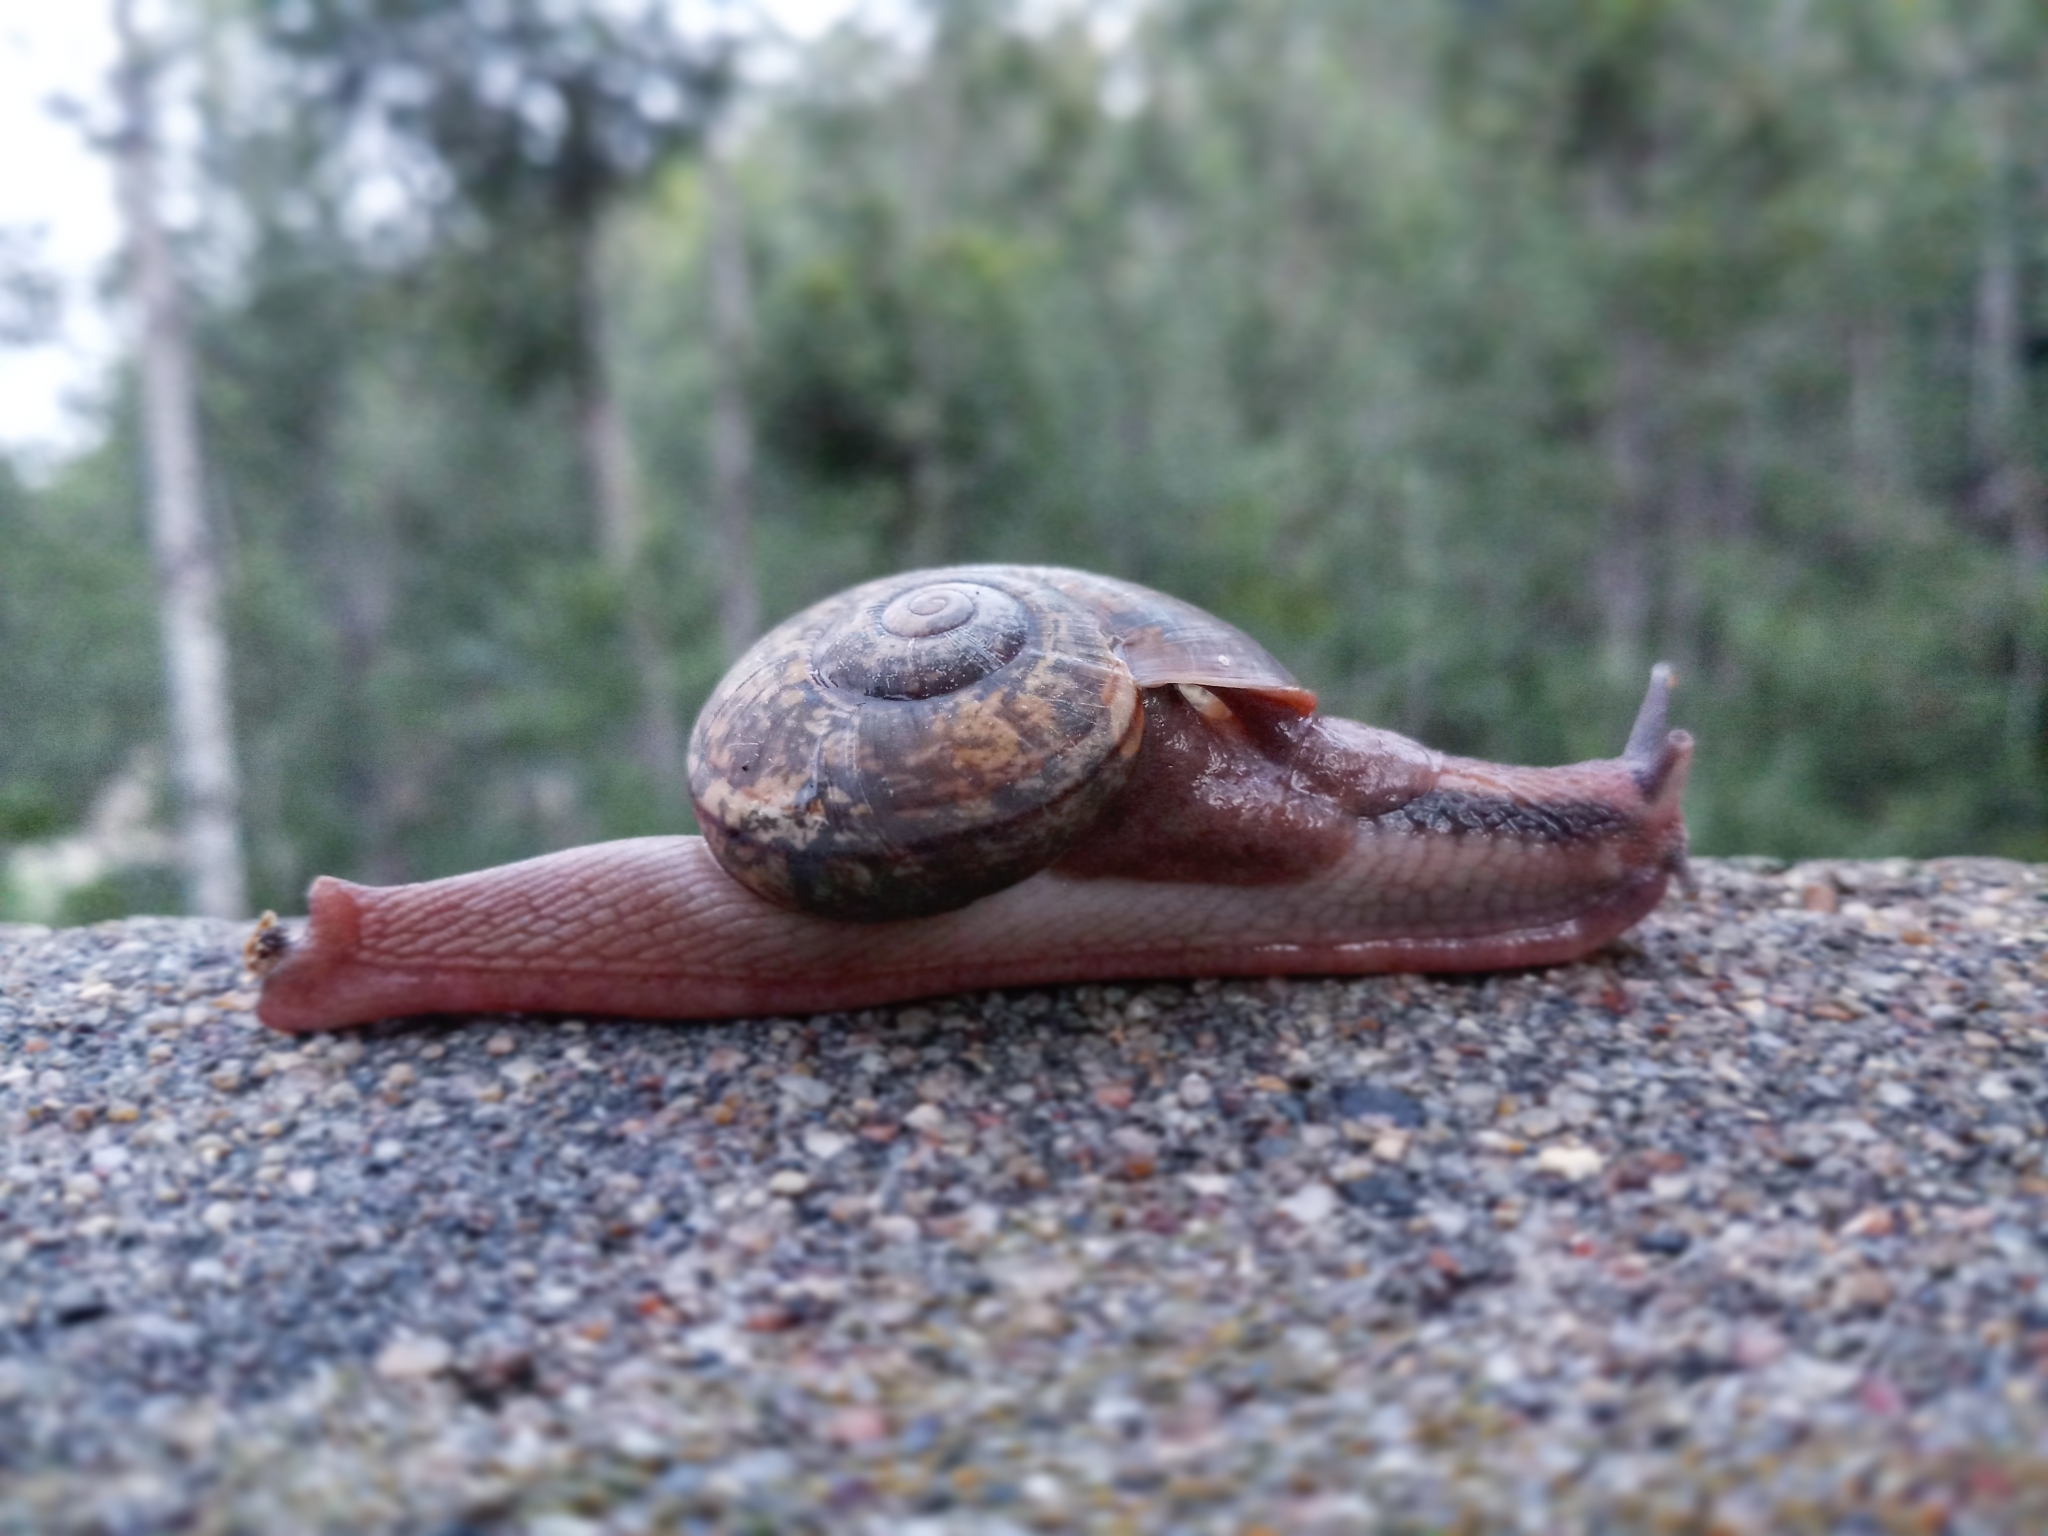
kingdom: Animalia
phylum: Mollusca
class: Gastropoda
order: Stylommatophora
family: Ariophantidae
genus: Ariophanta
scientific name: Ariophanta exilis
